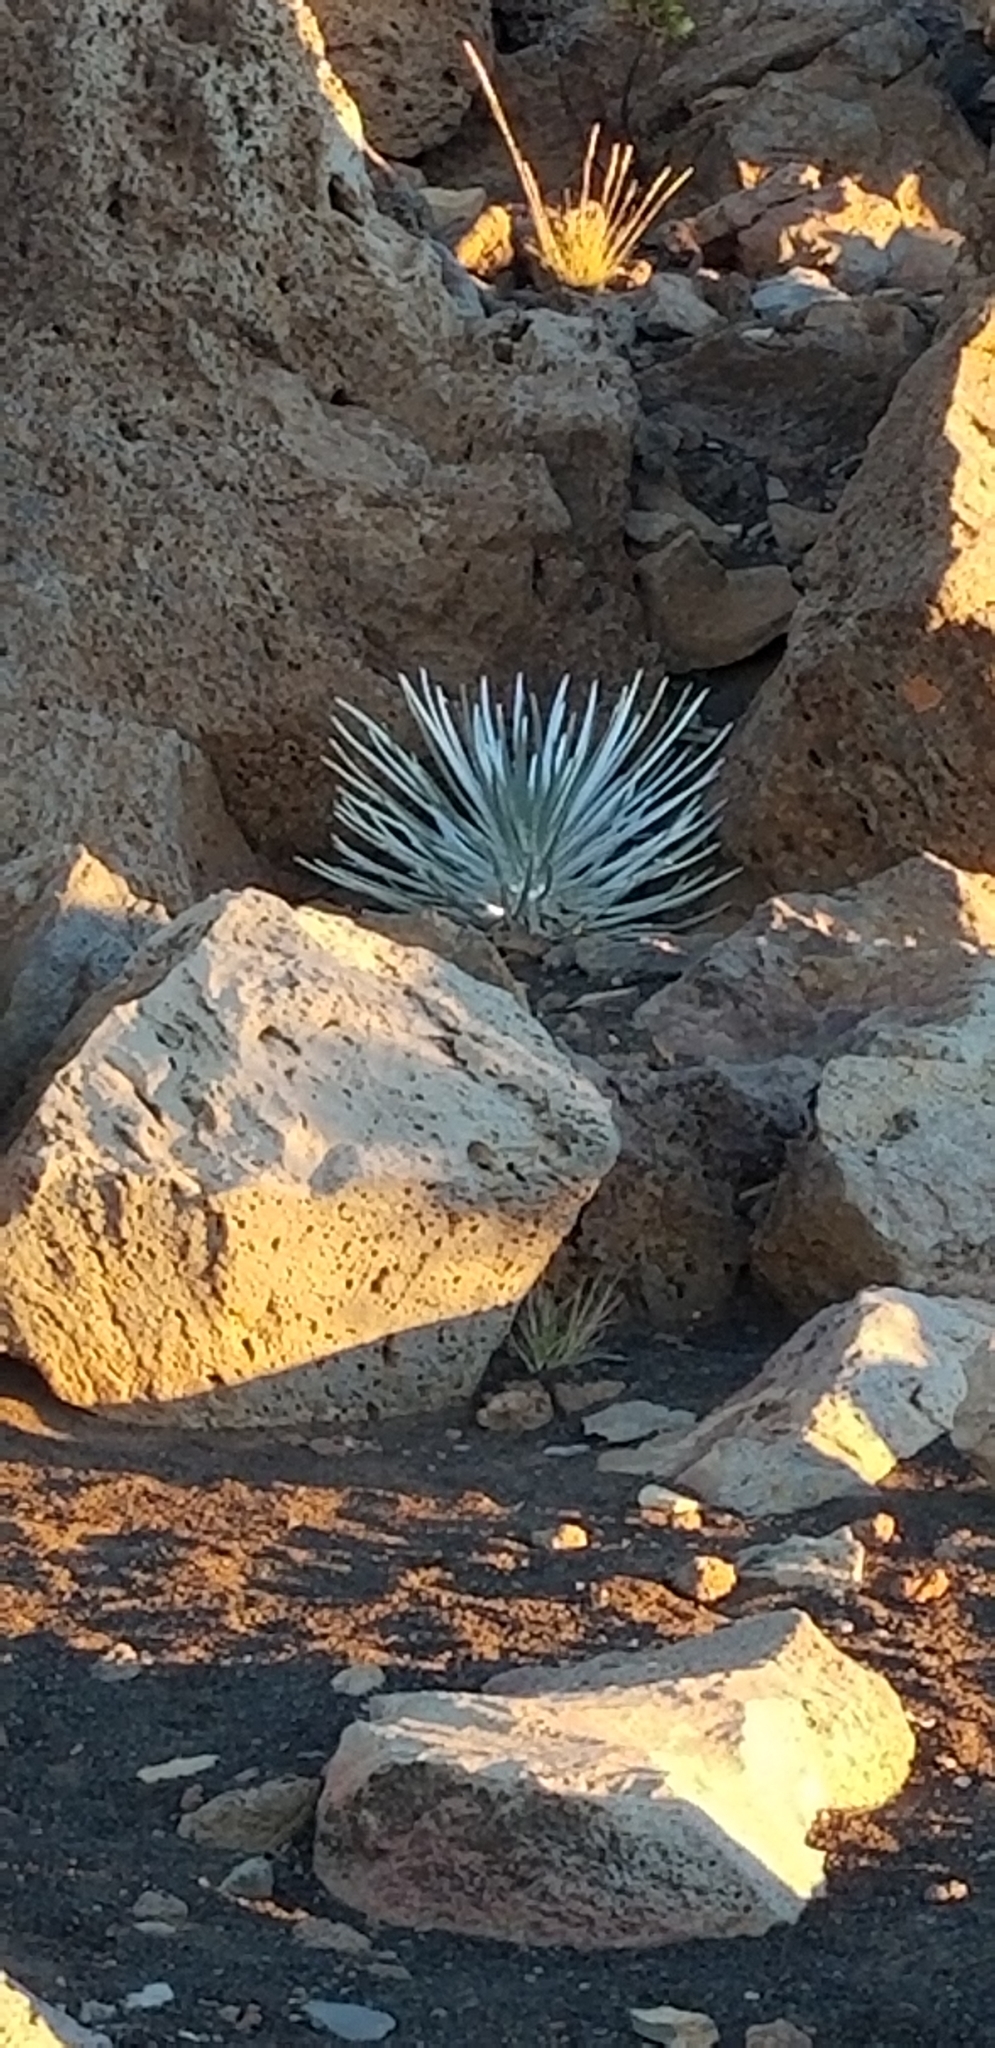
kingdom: Plantae
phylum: Tracheophyta
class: Magnoliopsida
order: Asterales
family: Asteraceae
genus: Argyroxiphium
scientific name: Argyroxiphium sandwicense
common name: Silversword
